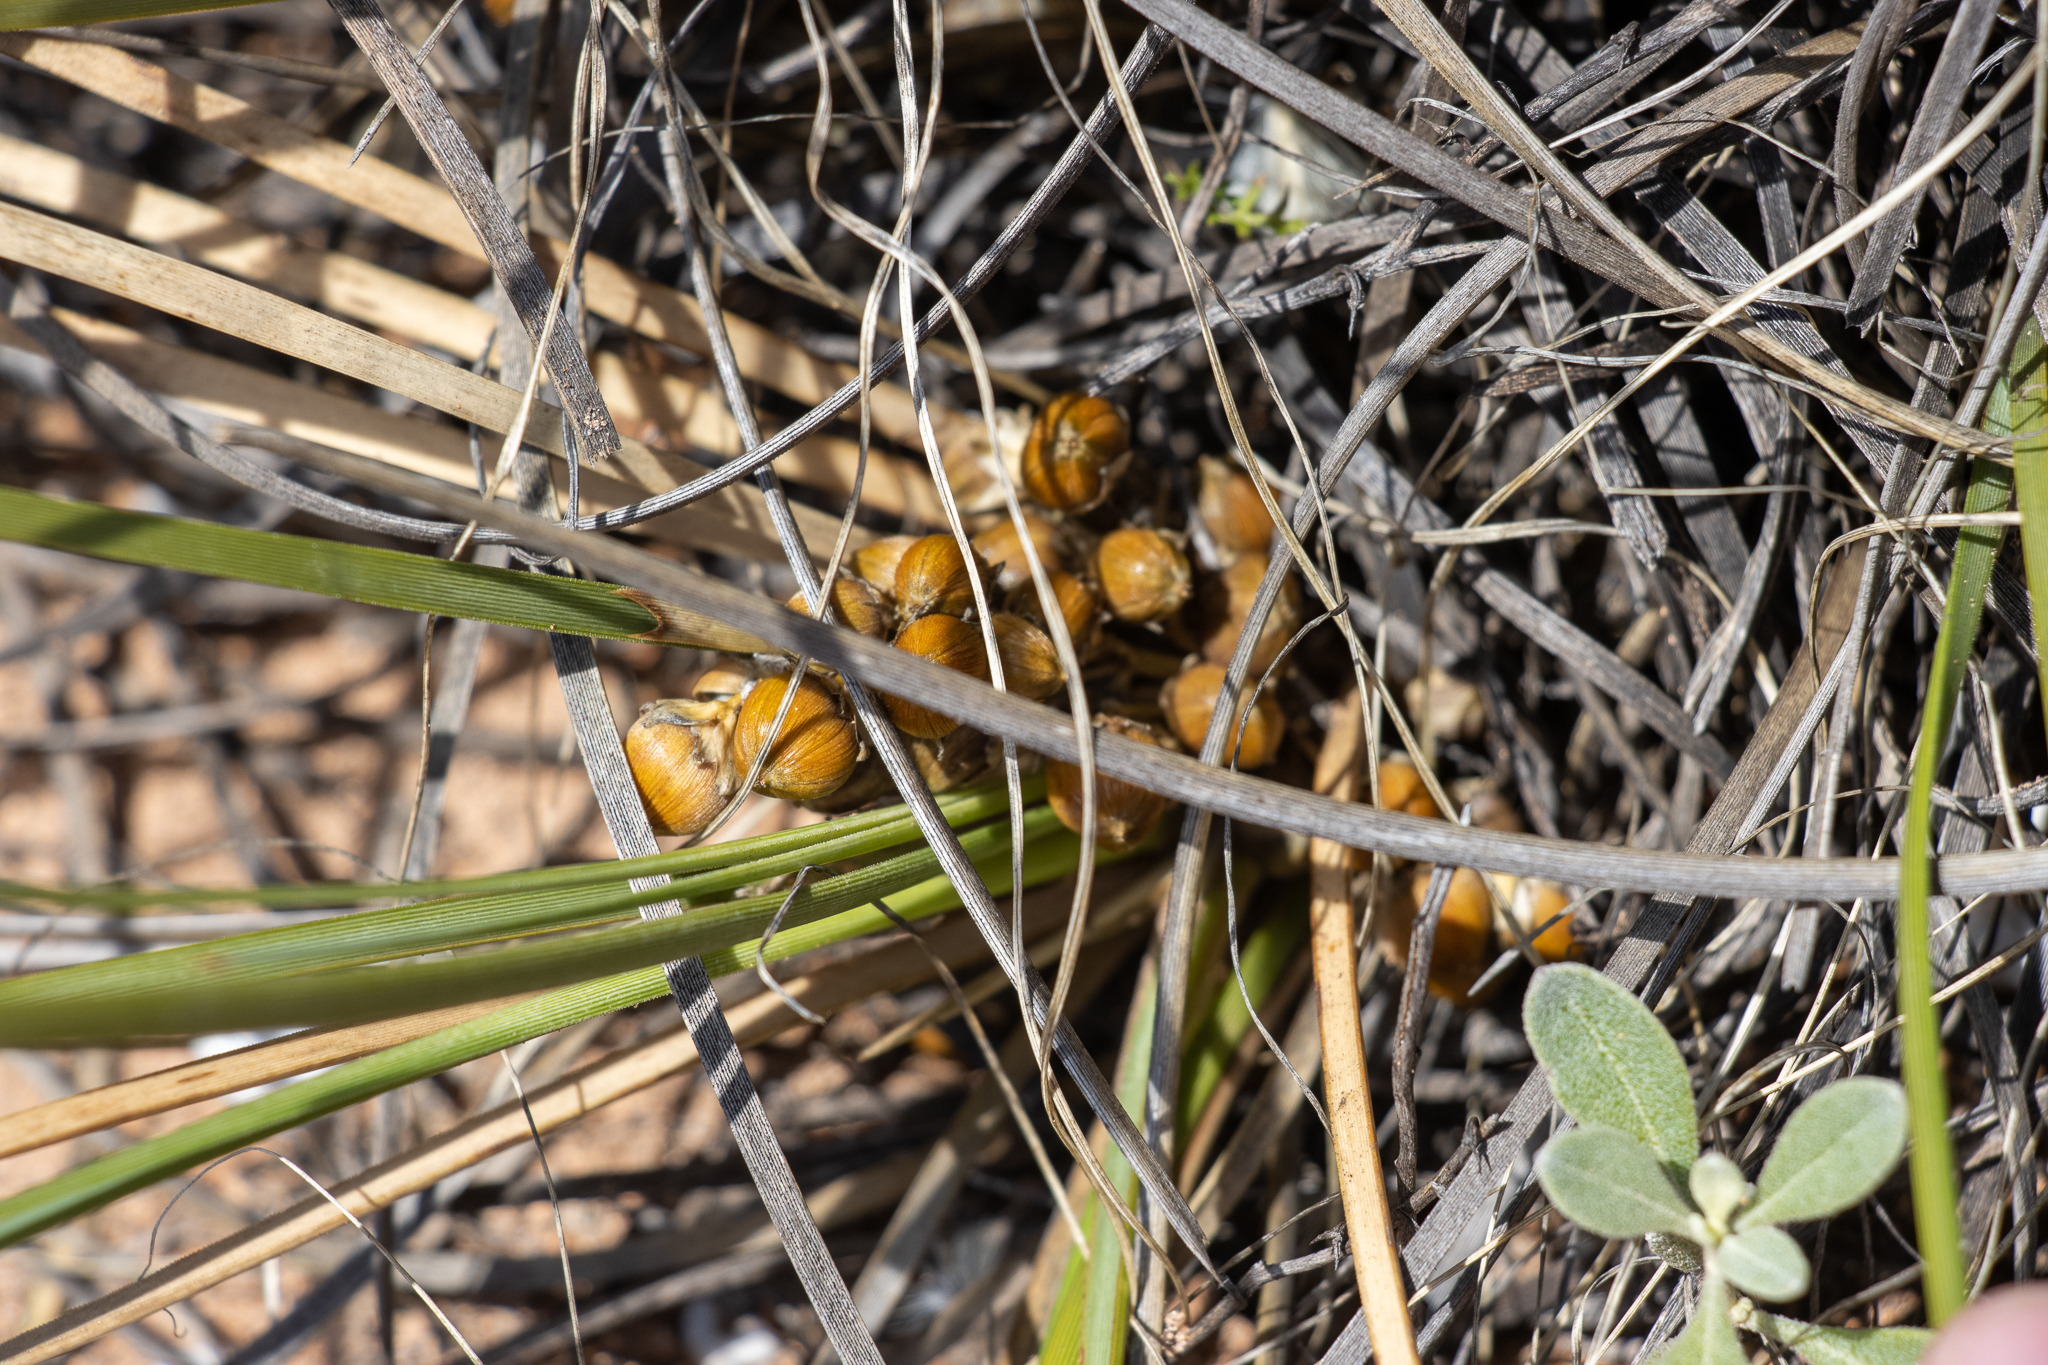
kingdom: Plantae
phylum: Tracheophyta
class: Liliopsida
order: Asparagales
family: Asparagaceae
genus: Lomandra
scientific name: Lomandra effusa
